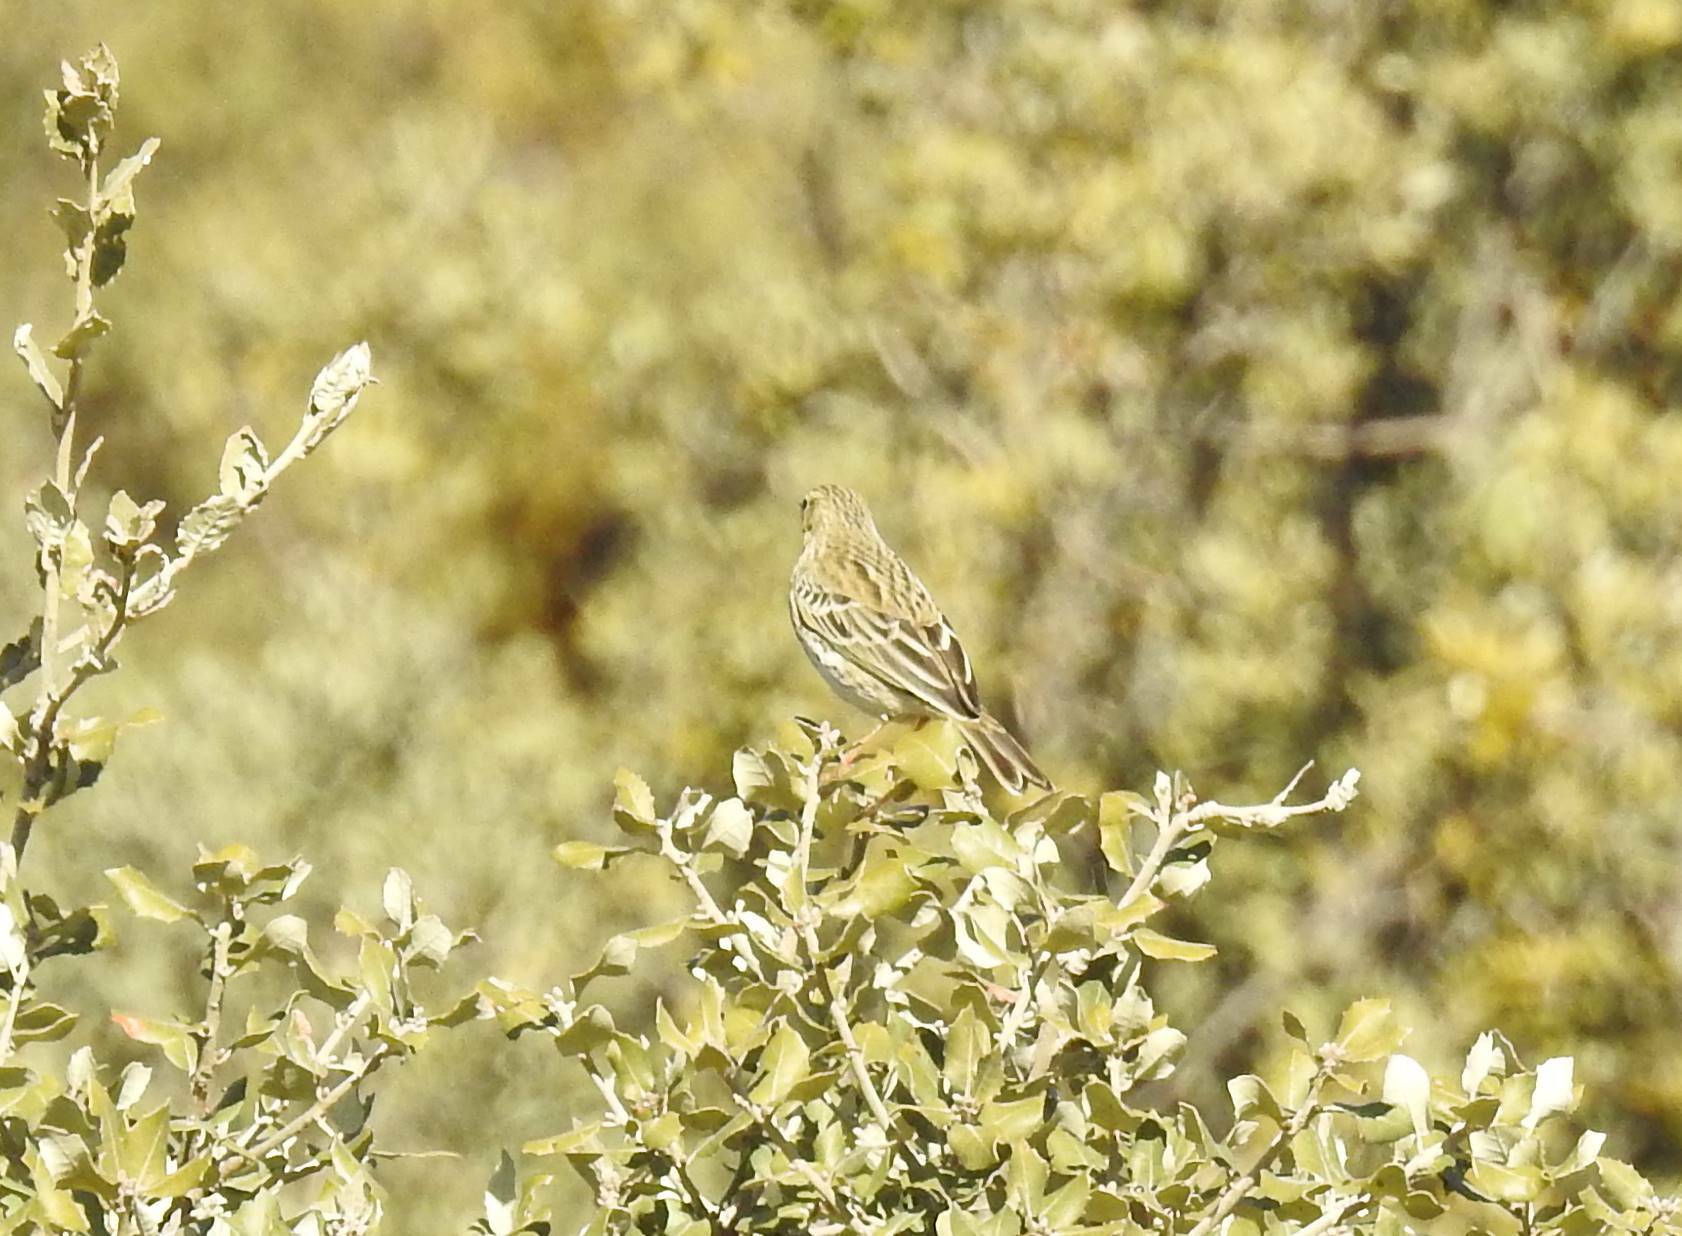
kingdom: Animalia
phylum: Chordata
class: Aves
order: Passeriformes
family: Motacillidae
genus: Anthus
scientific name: Anthus pratensis
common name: Meadow pipit
